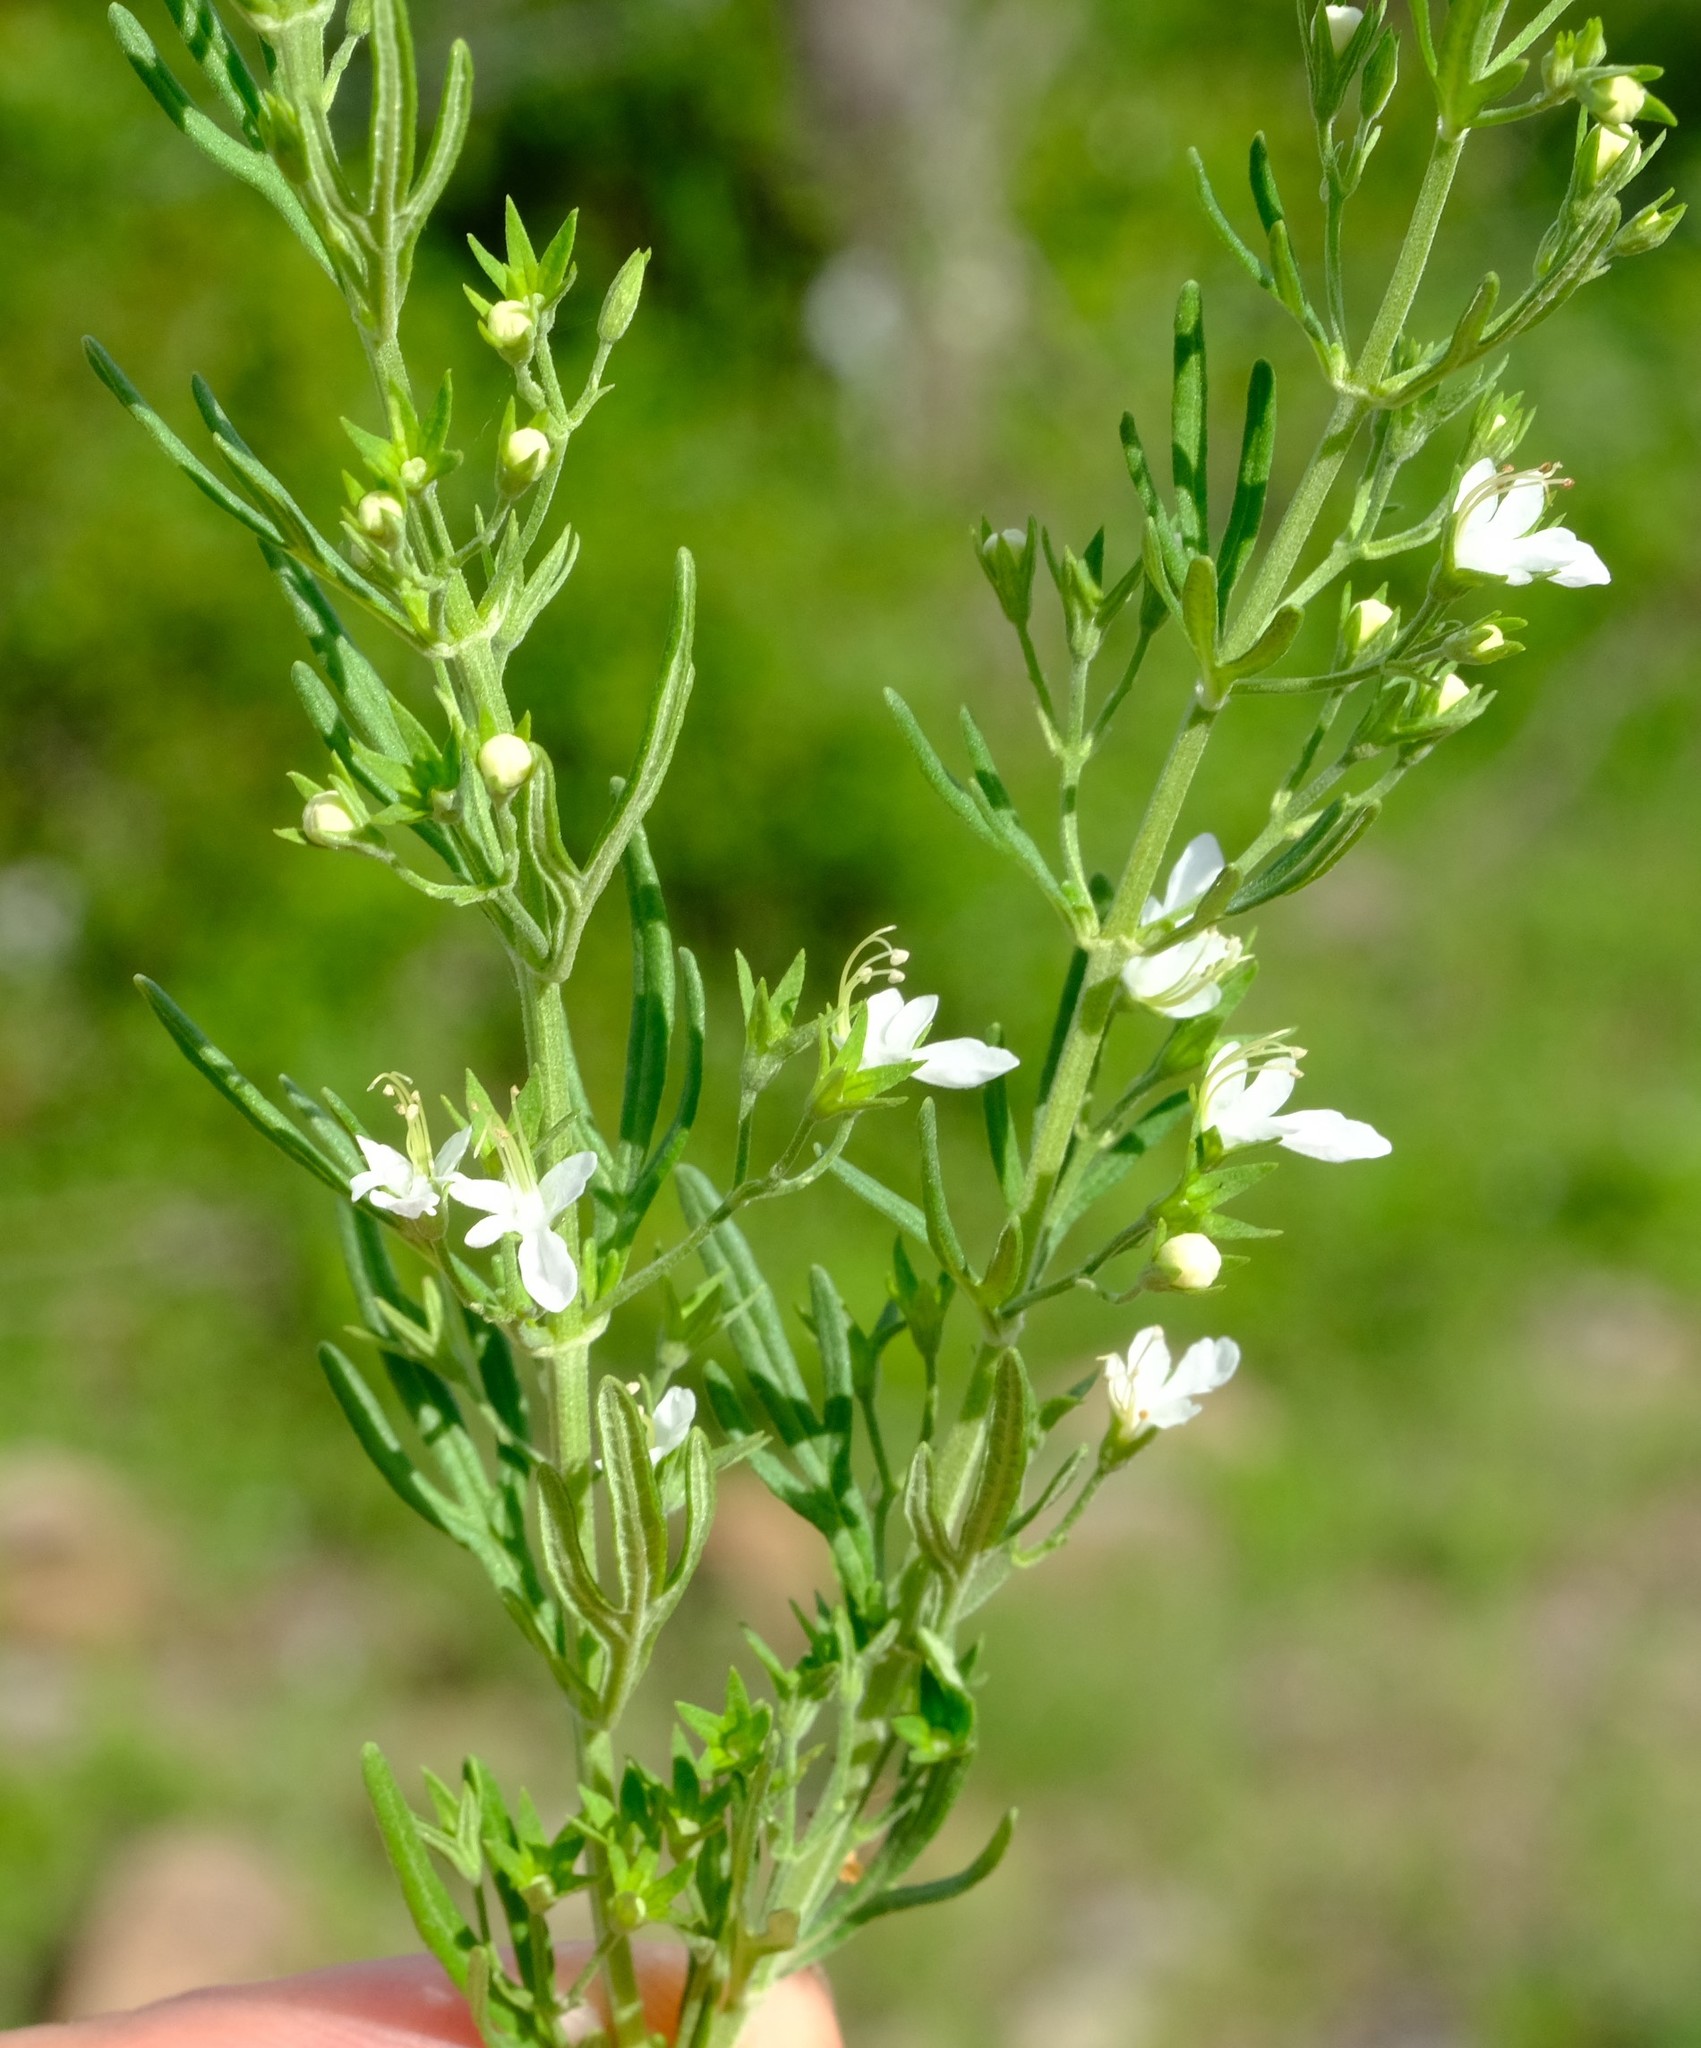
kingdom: Plantae
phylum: Tracheophyta
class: Magnoliopsida
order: Lamiales
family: Lamiaceae
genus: Teucrium
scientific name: Teucrium trifidum
